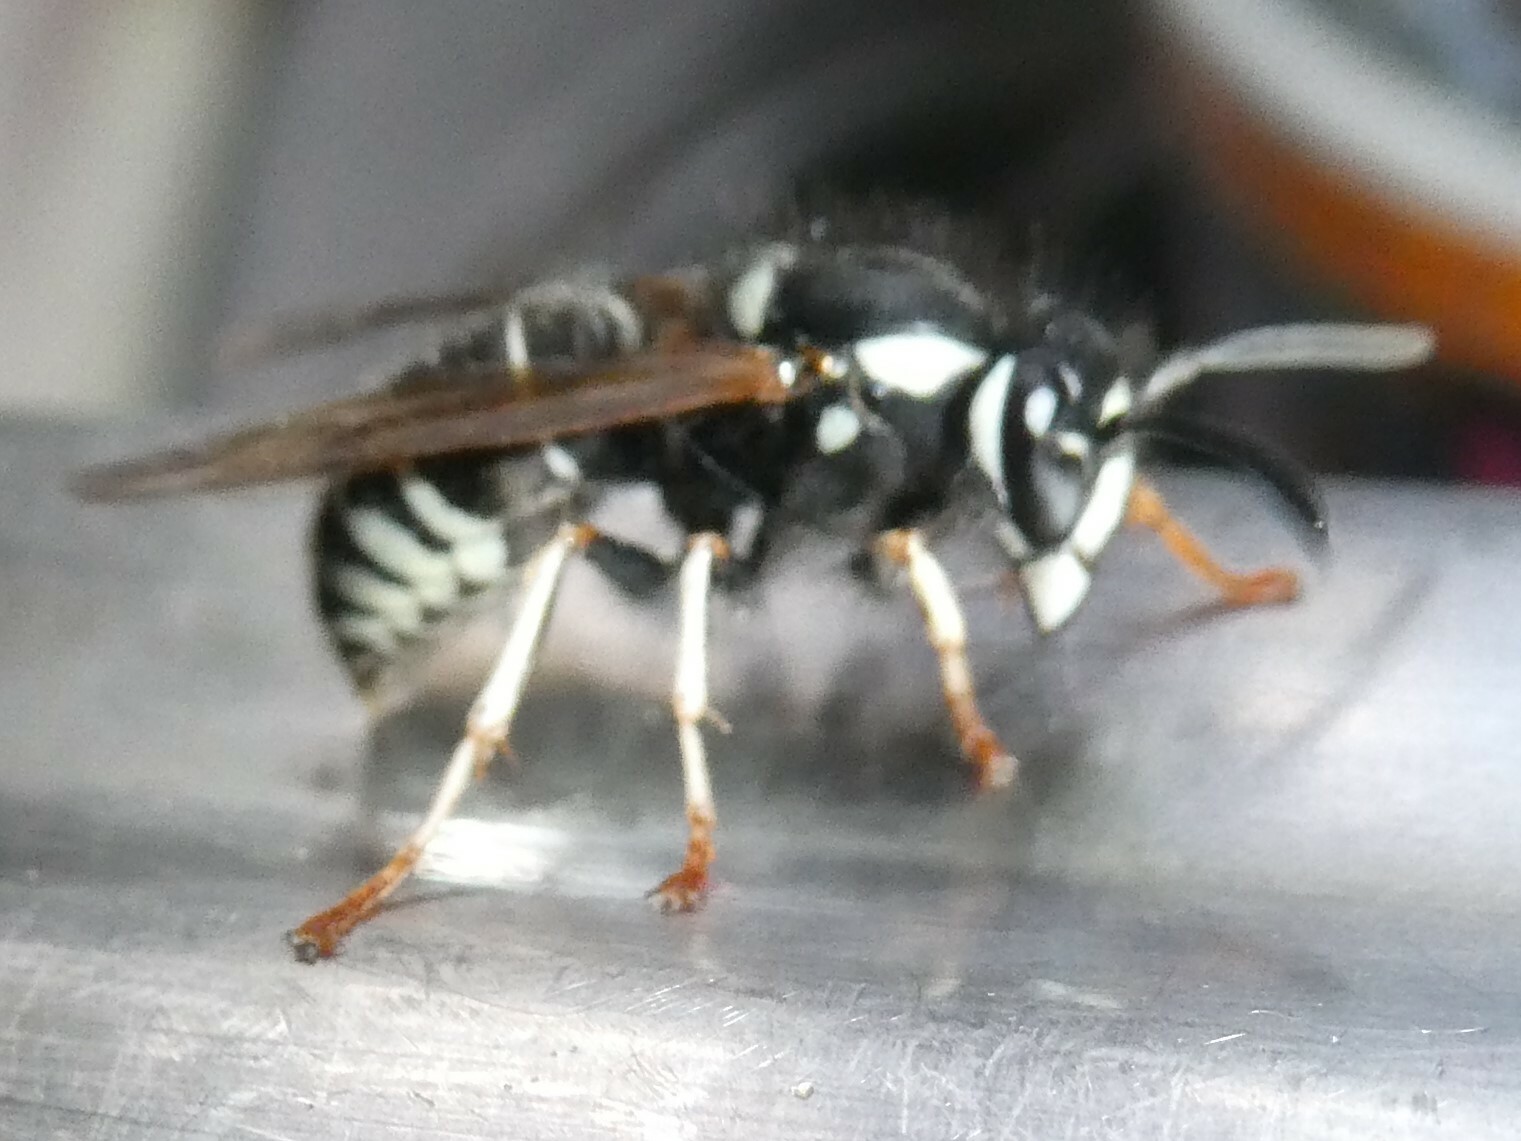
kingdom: Animalia
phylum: Arthropoda
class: Insecta
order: Hymenoptera
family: Vespidae
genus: Vespula
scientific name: Vespula consobrina
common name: Blackjacket
